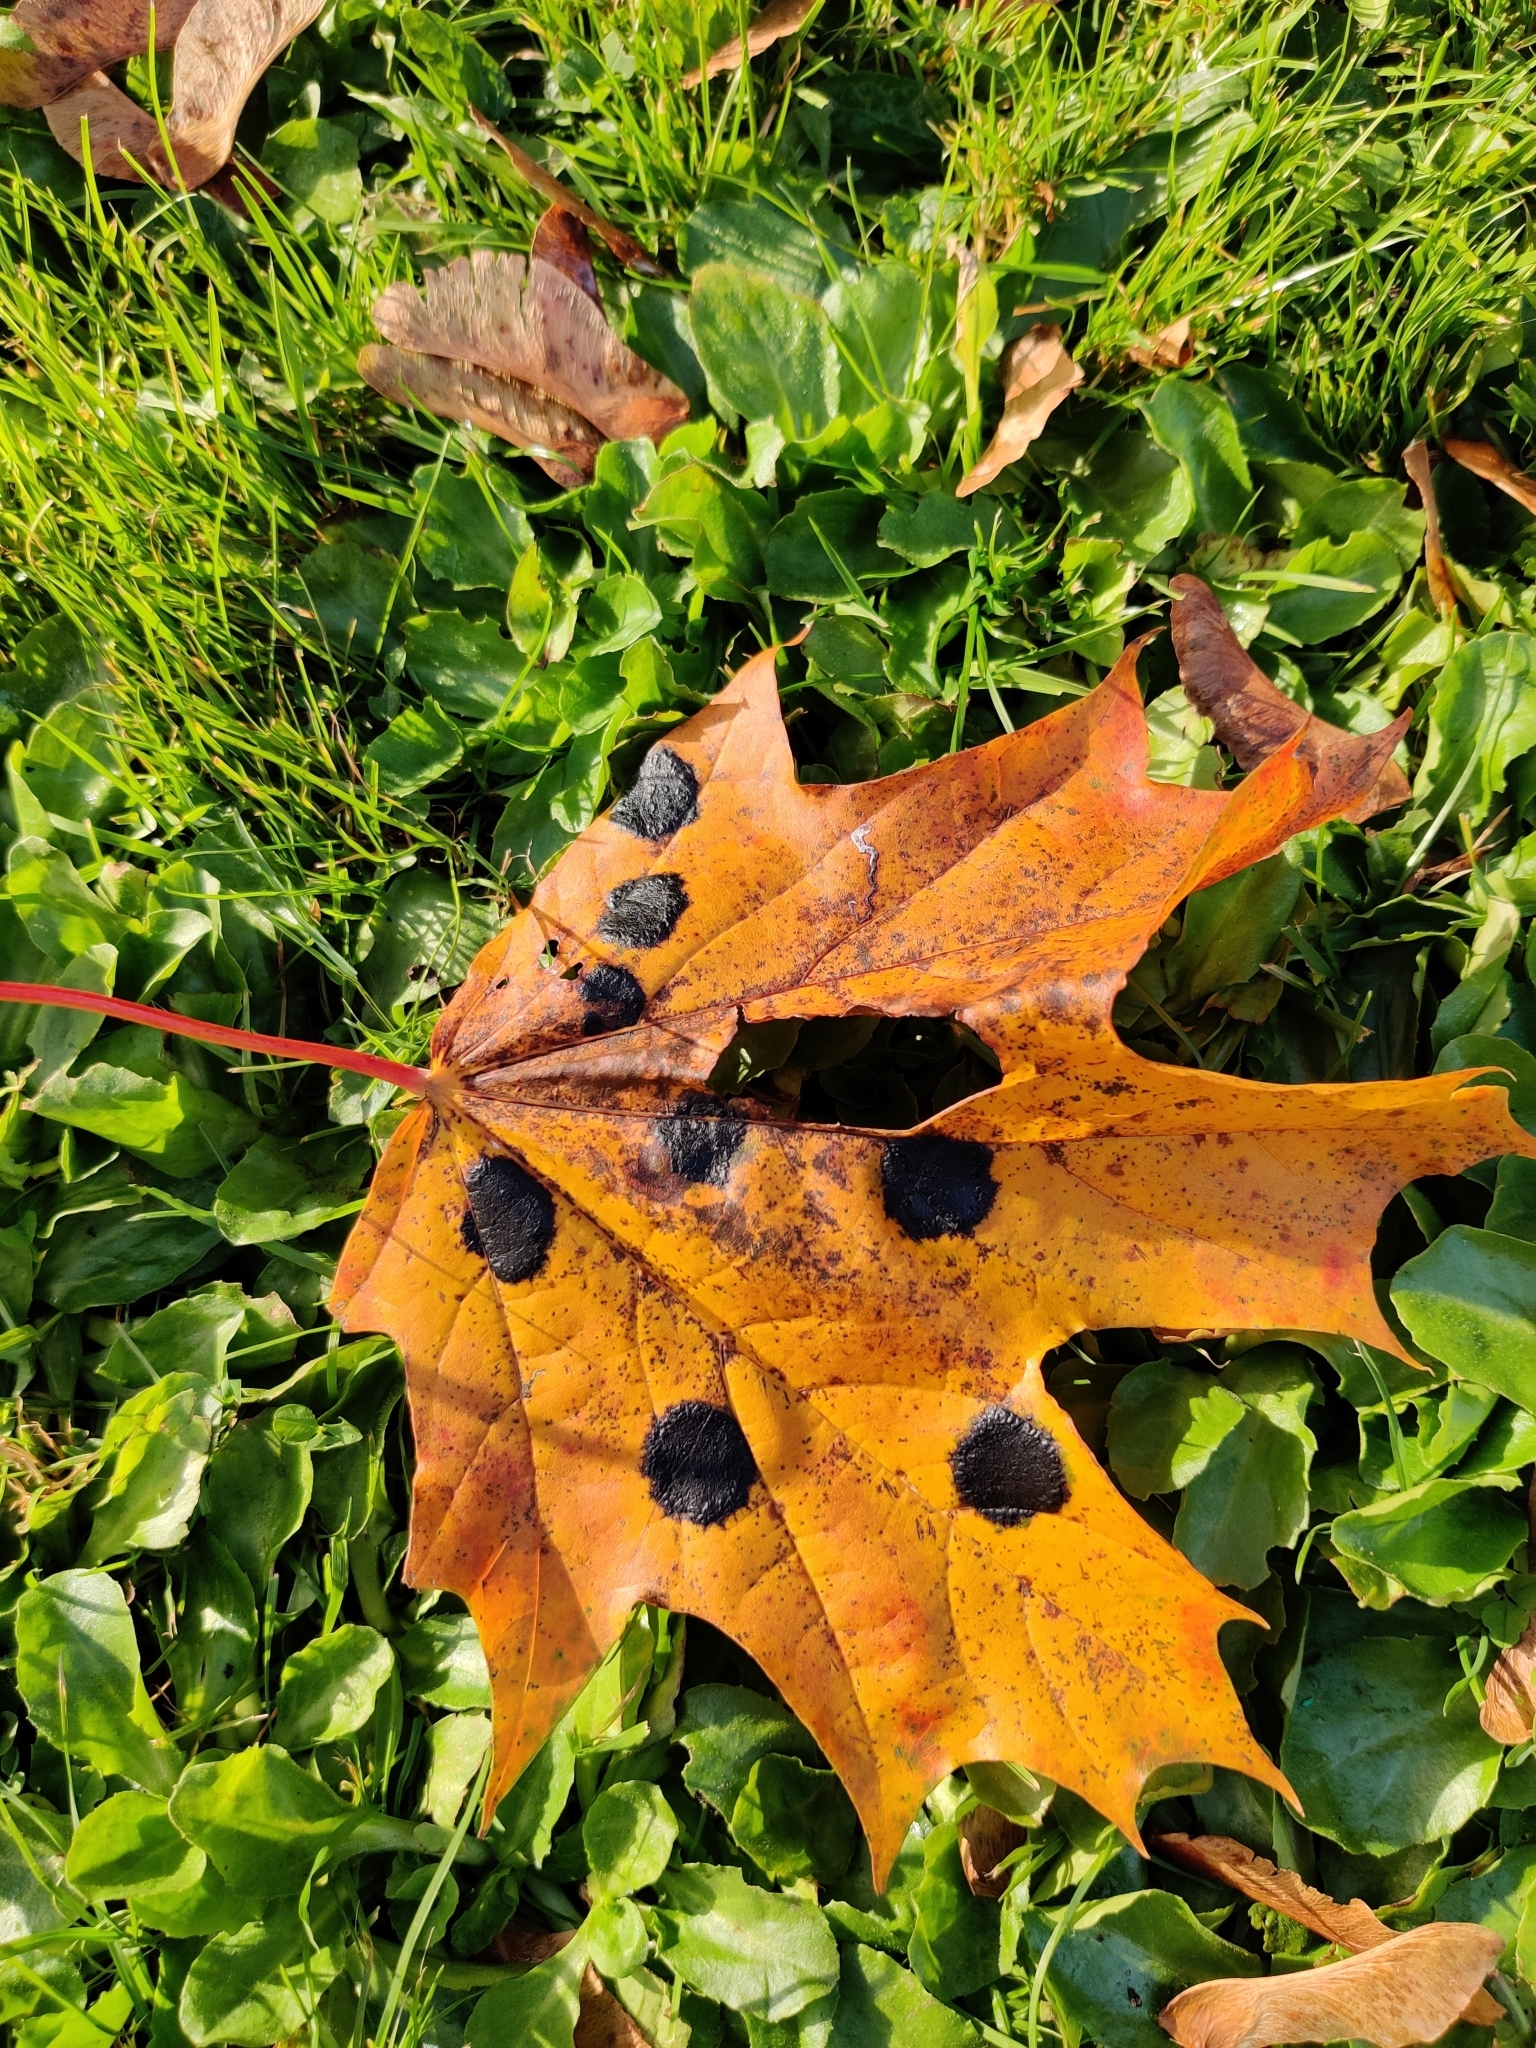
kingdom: Fungi
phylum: Ascomycota
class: Leotiomycetes
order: Rhytismatales
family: Rhytismataceae
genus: Rhytisma
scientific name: Rhytisma acerinum
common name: European tar spot
